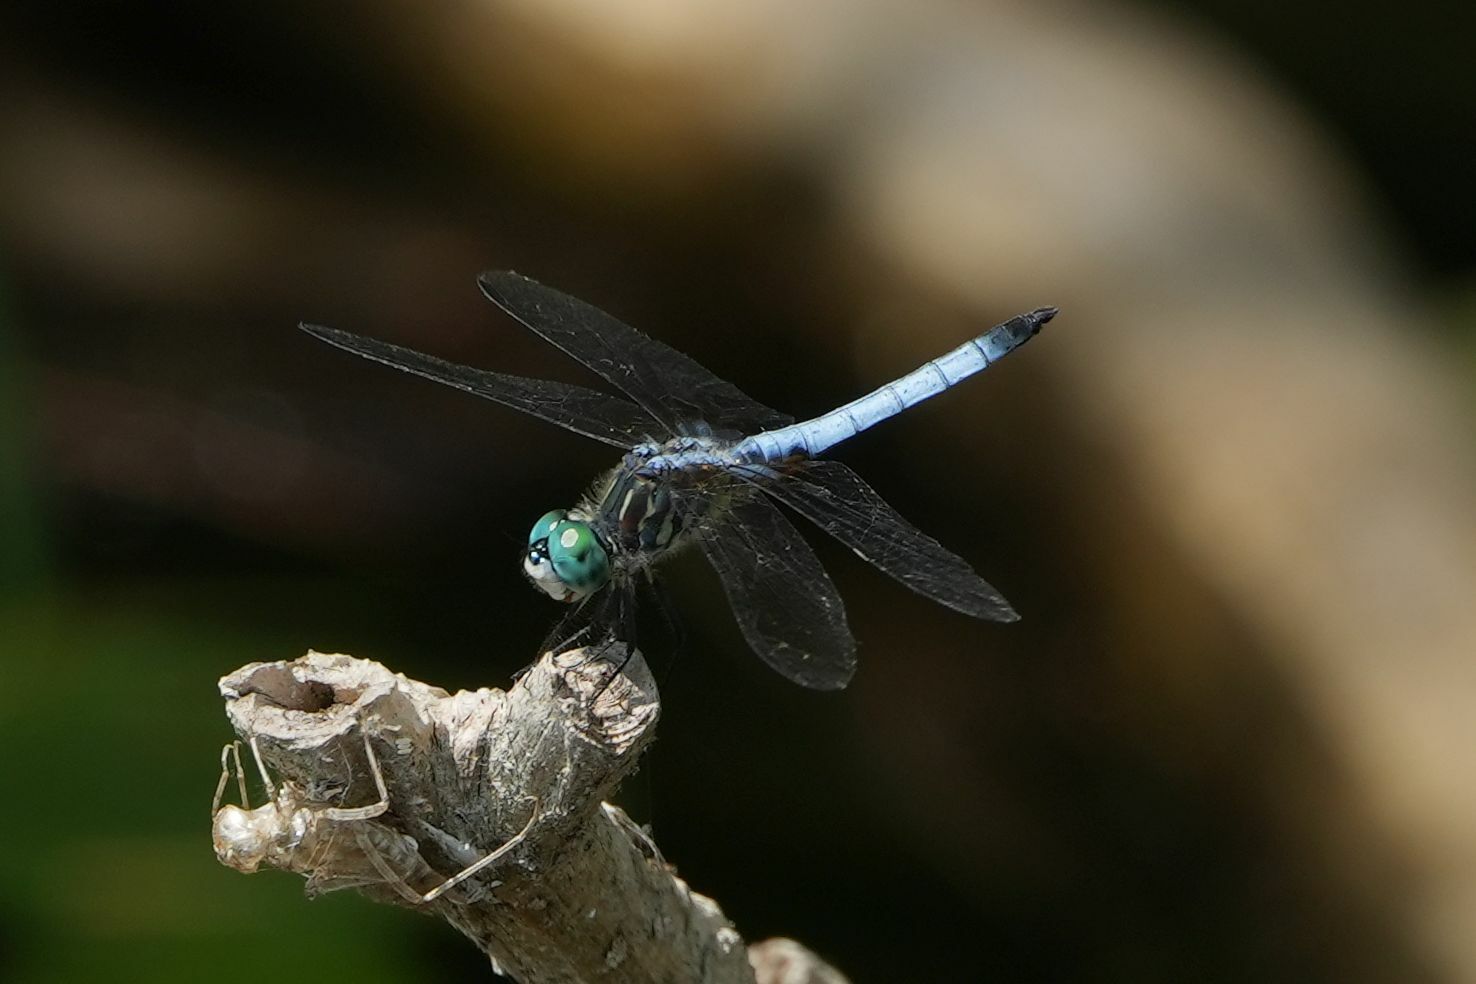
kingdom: Animalia
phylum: Arthropoda
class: Insecta
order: Odonata
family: Libellulidae
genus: Pachydiplax
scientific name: Pachydiplax longipennis
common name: Blue dasher
